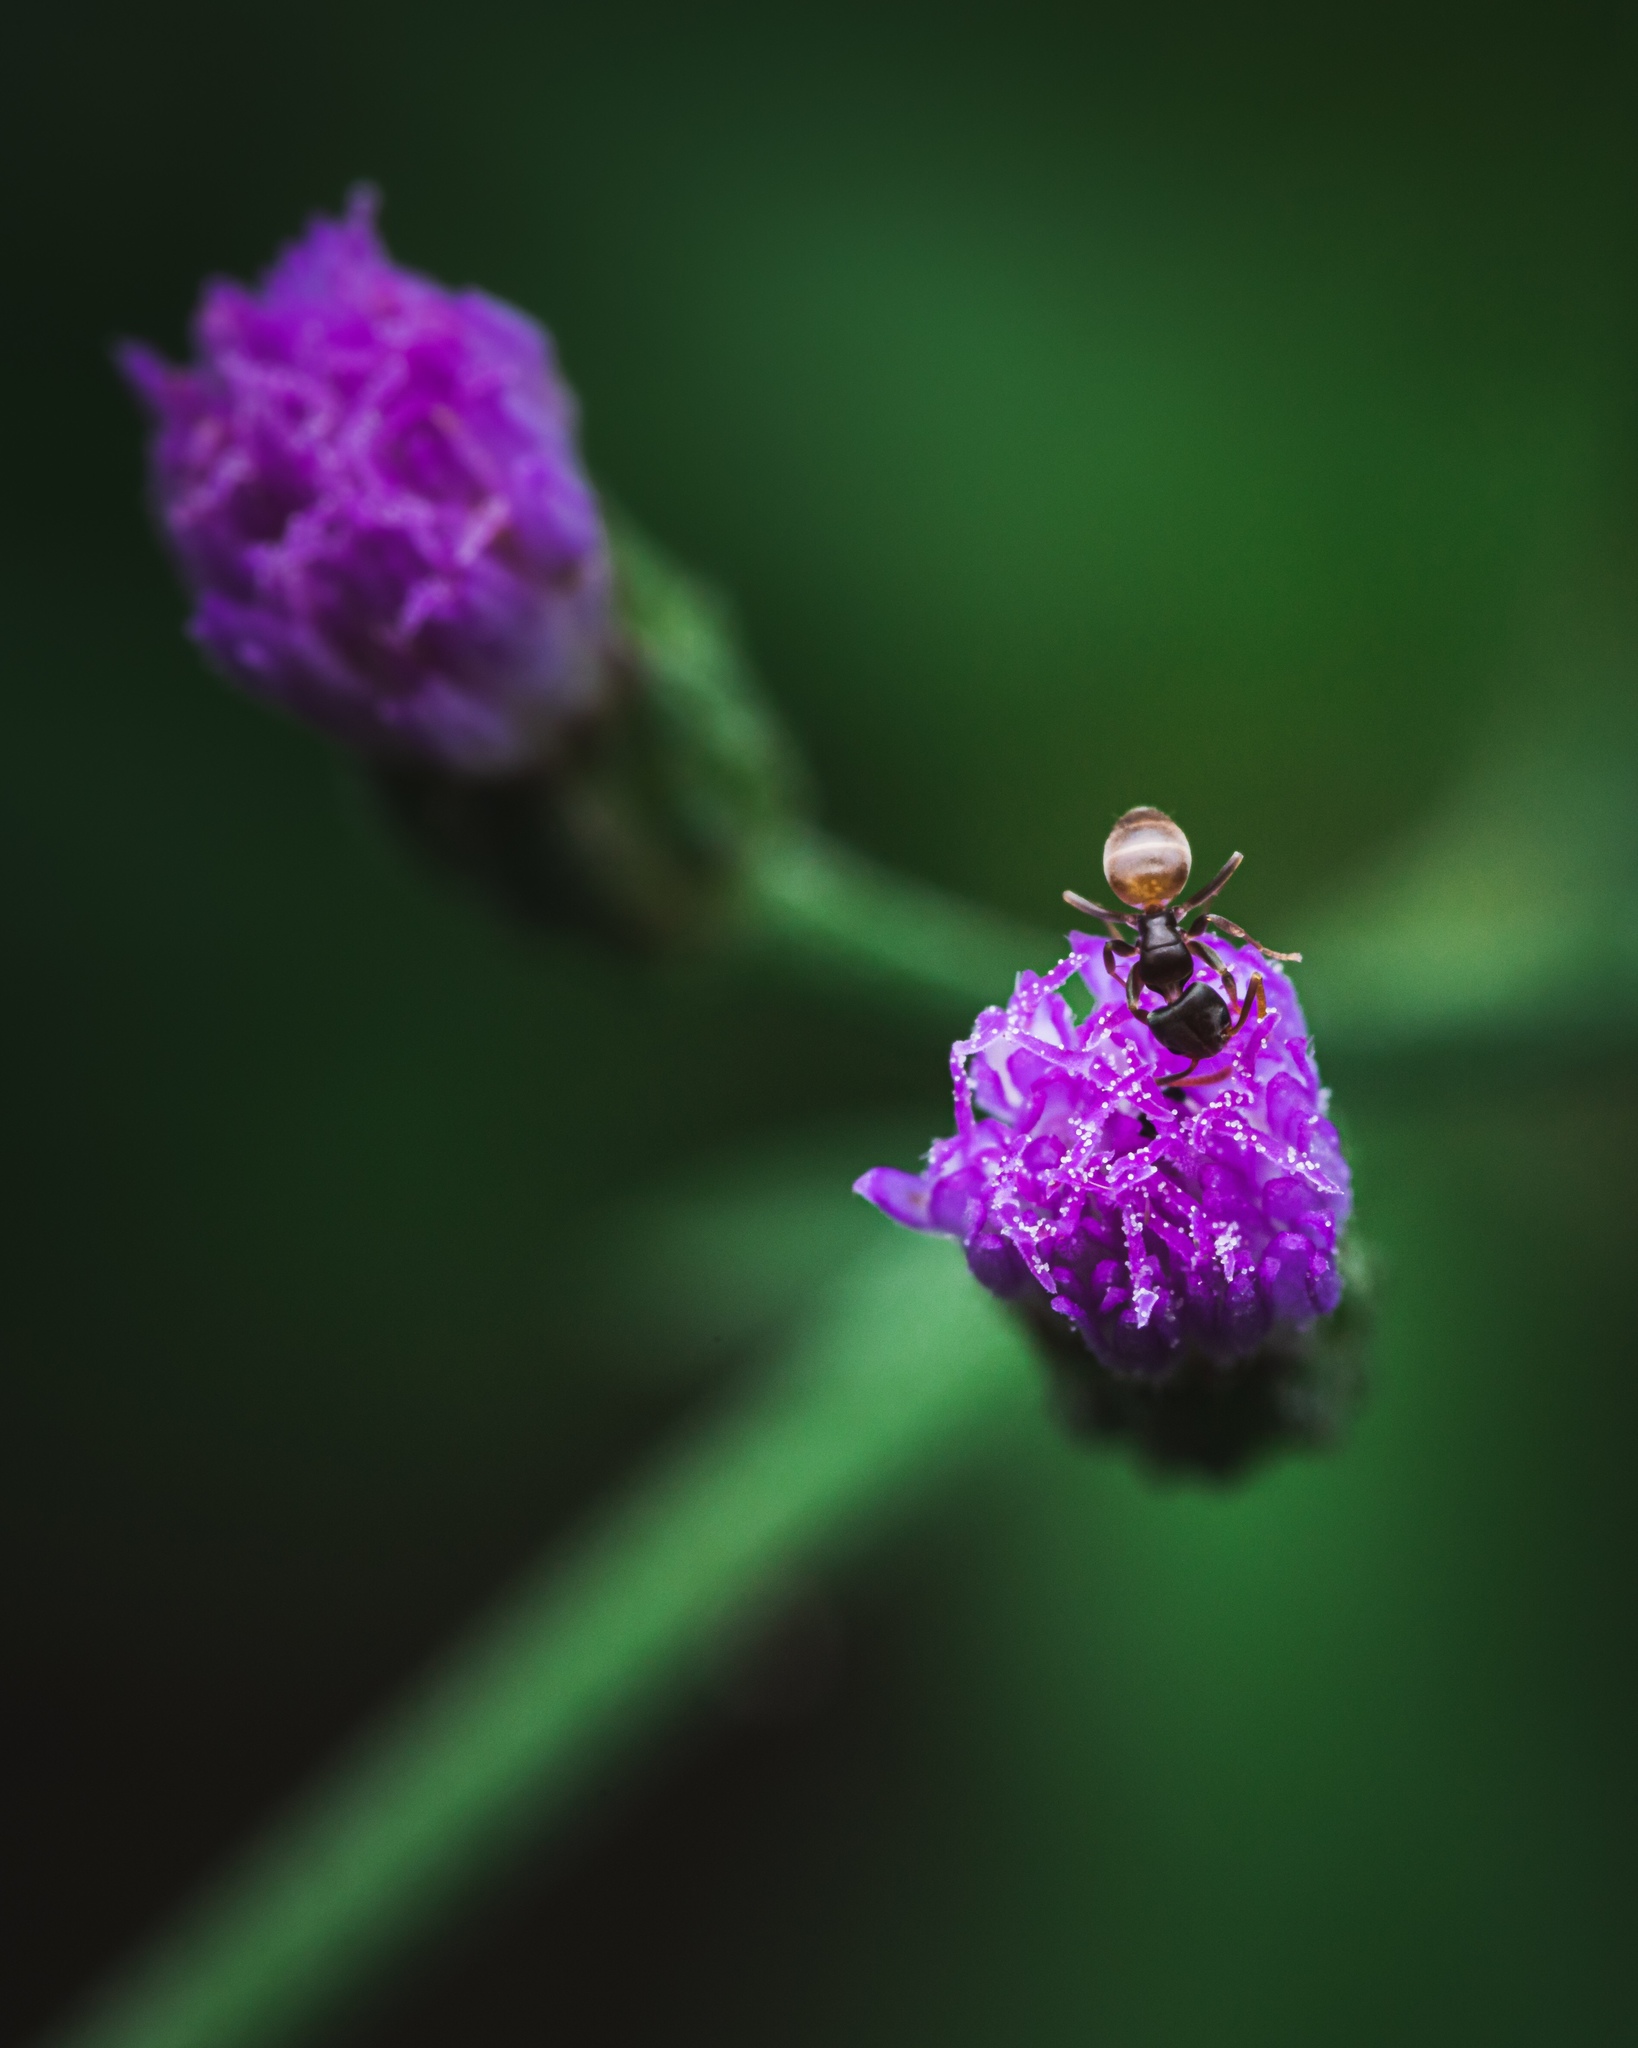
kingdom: Animalia
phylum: Arthropoda
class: Insecta
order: Hymenoptera
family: Formicidae
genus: Tapinoma
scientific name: Tapinoma melanocephalum
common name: Ghost ant
